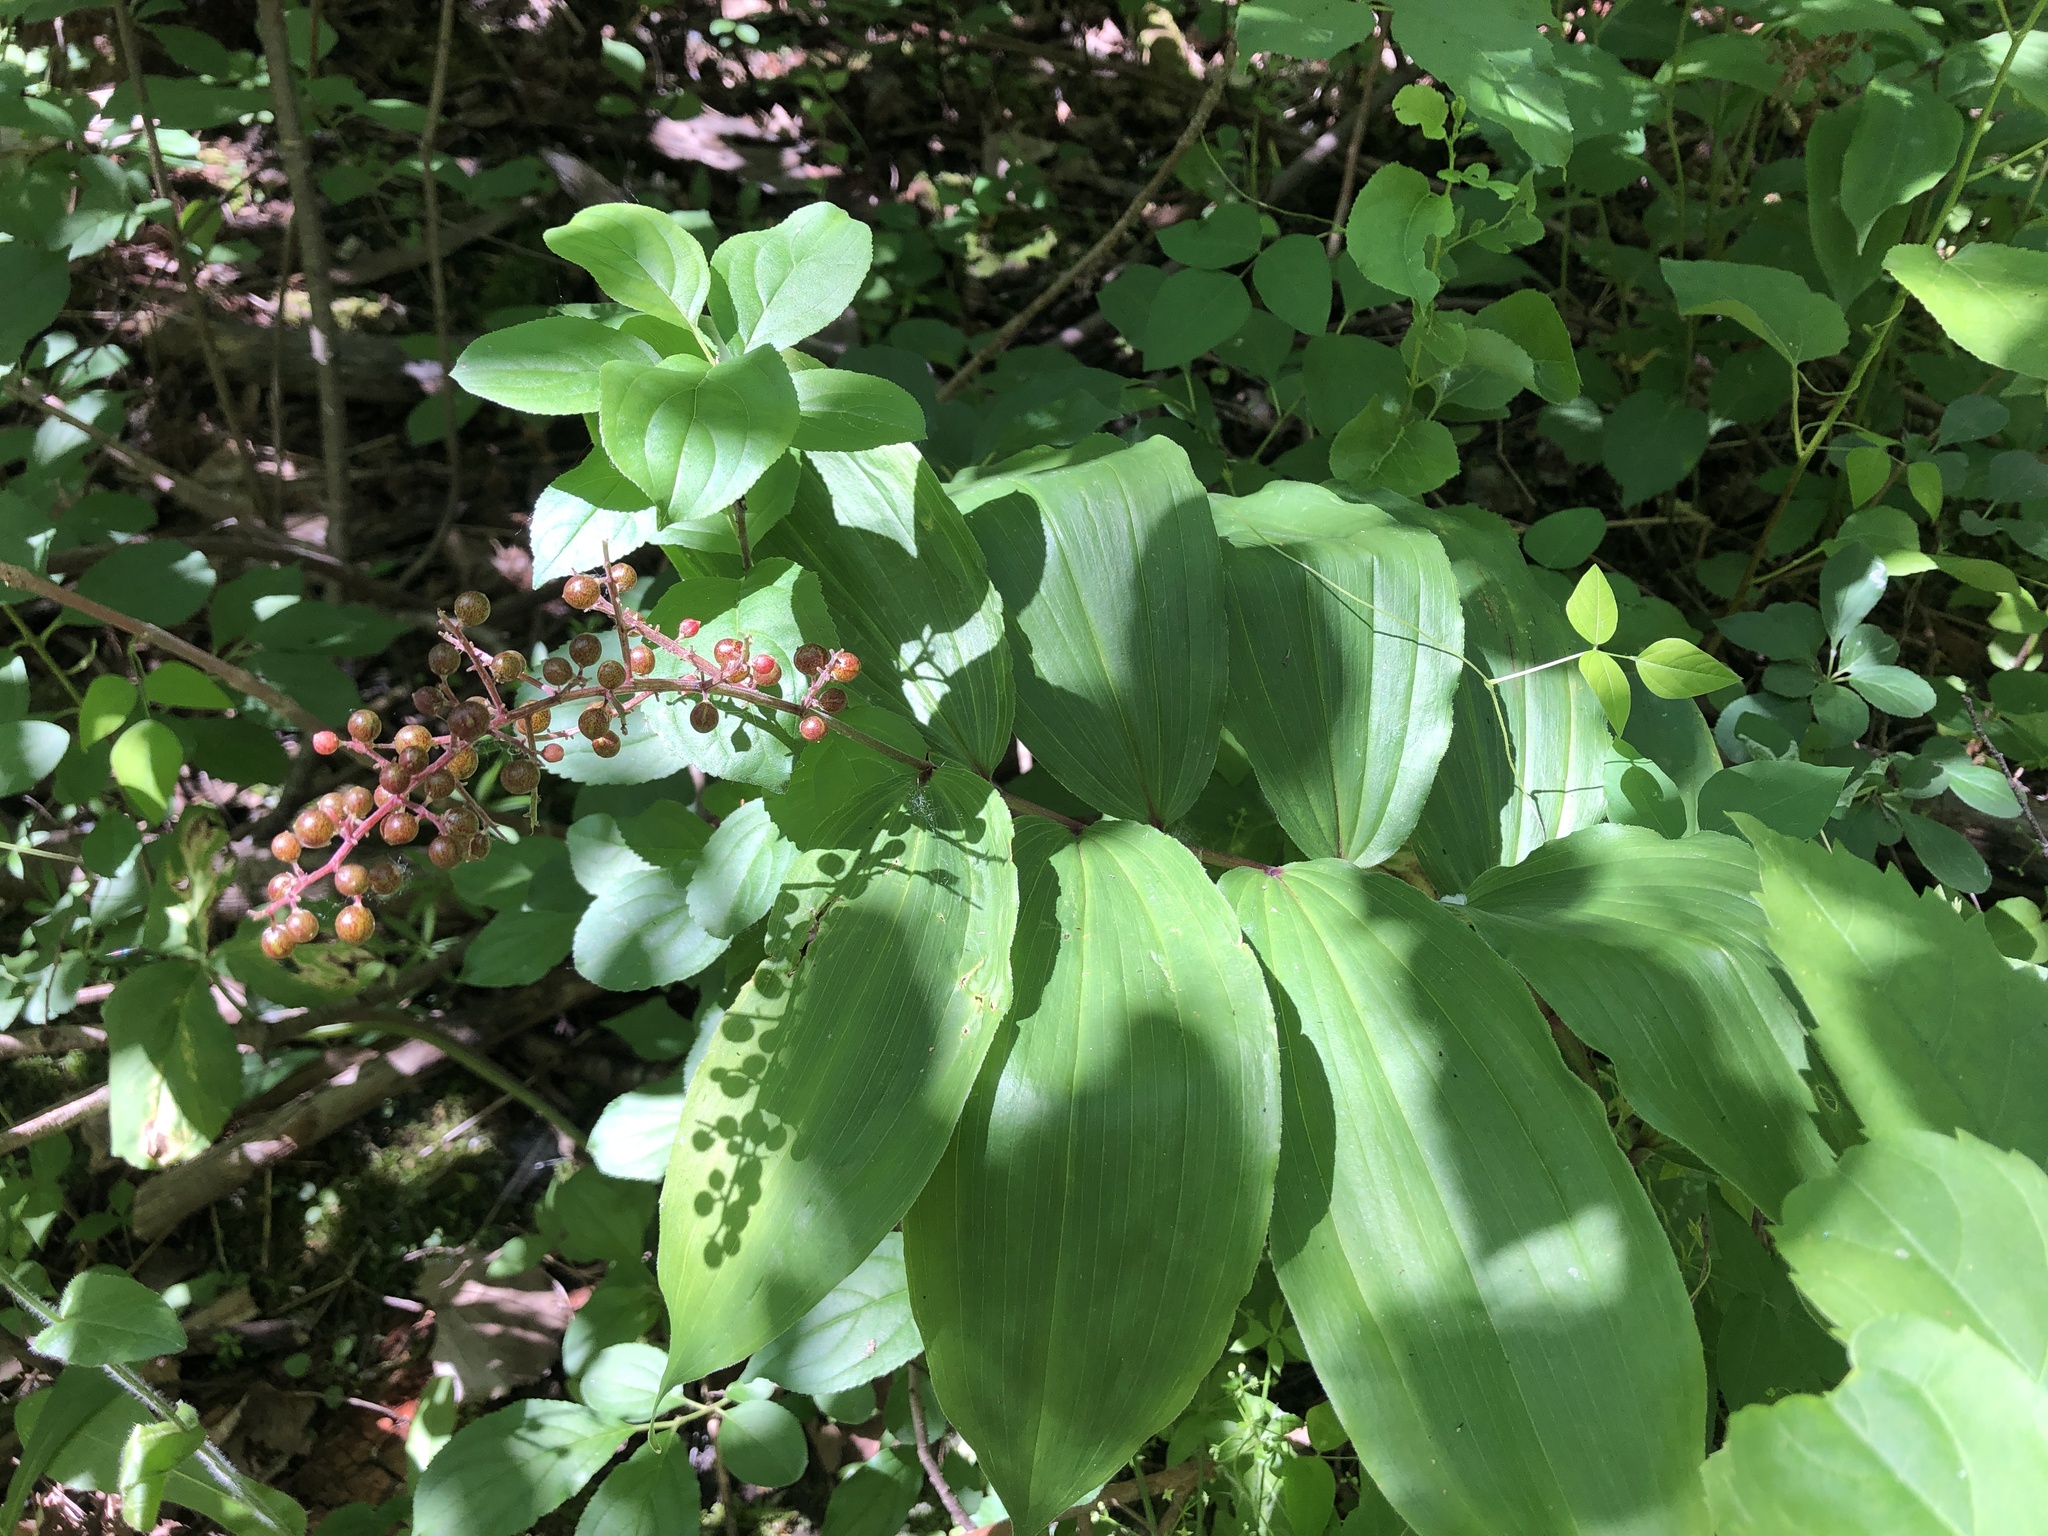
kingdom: Plantae
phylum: Tracheophyta
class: Liliopsida
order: Asparagales
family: Asparagaceae
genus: Maianthemum
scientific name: Maianthemum racemosum
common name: False spikenard
